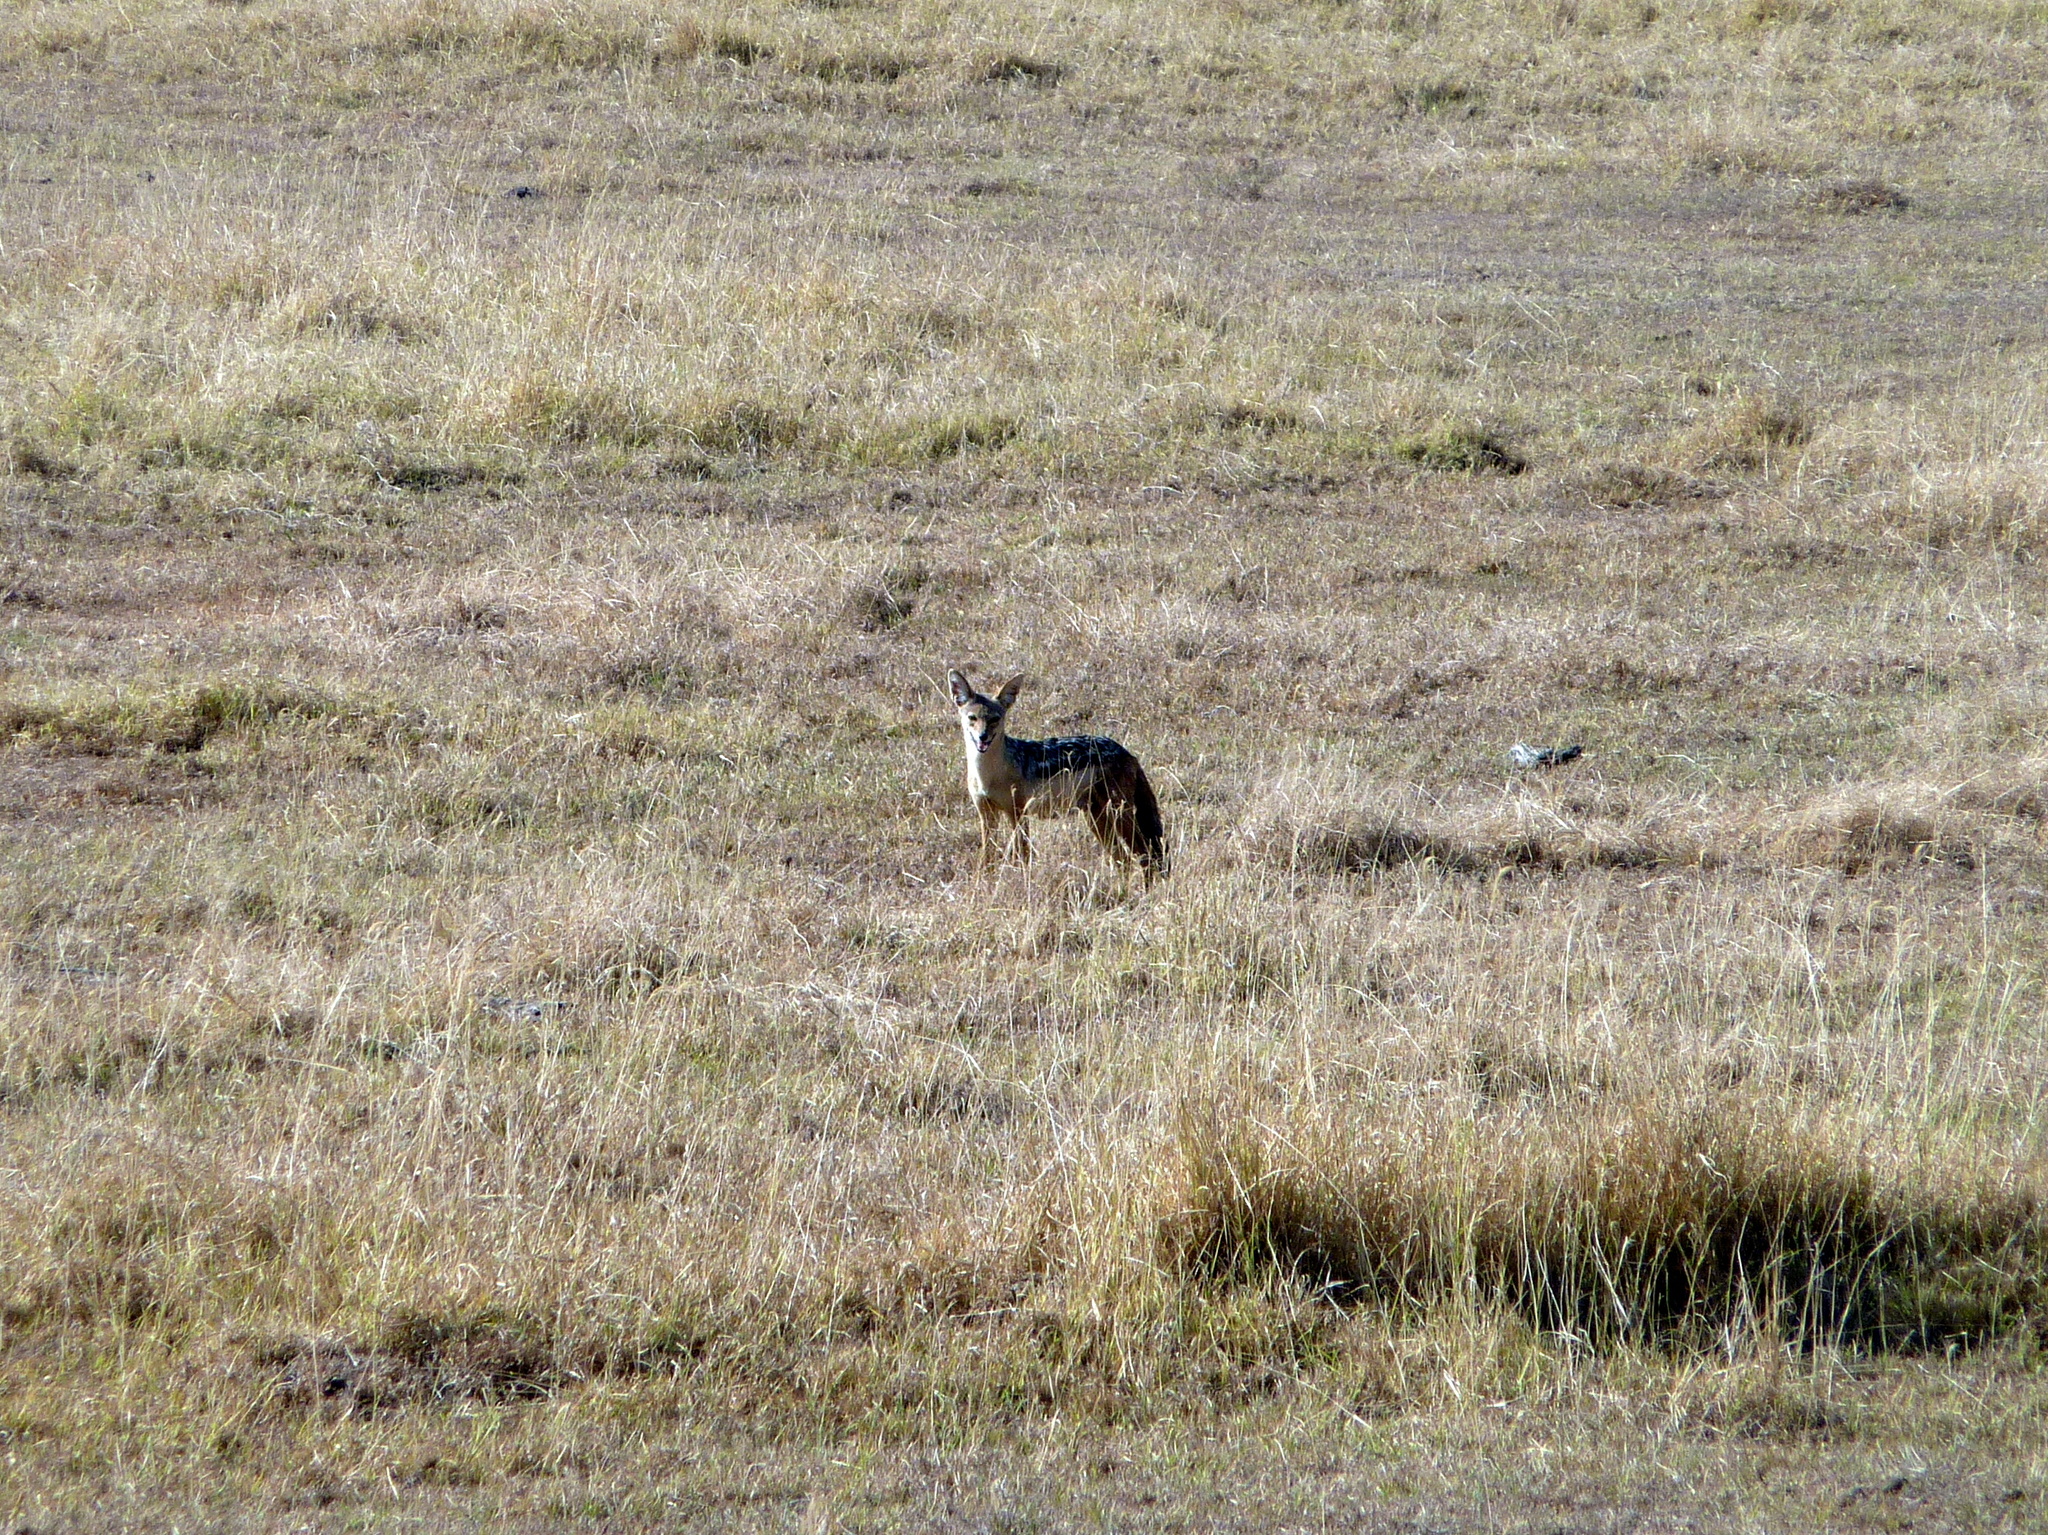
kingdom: Animalia
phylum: Chordata
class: Mammalia
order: Carnivora
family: Canidae
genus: Lupulella
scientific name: Lupulella
